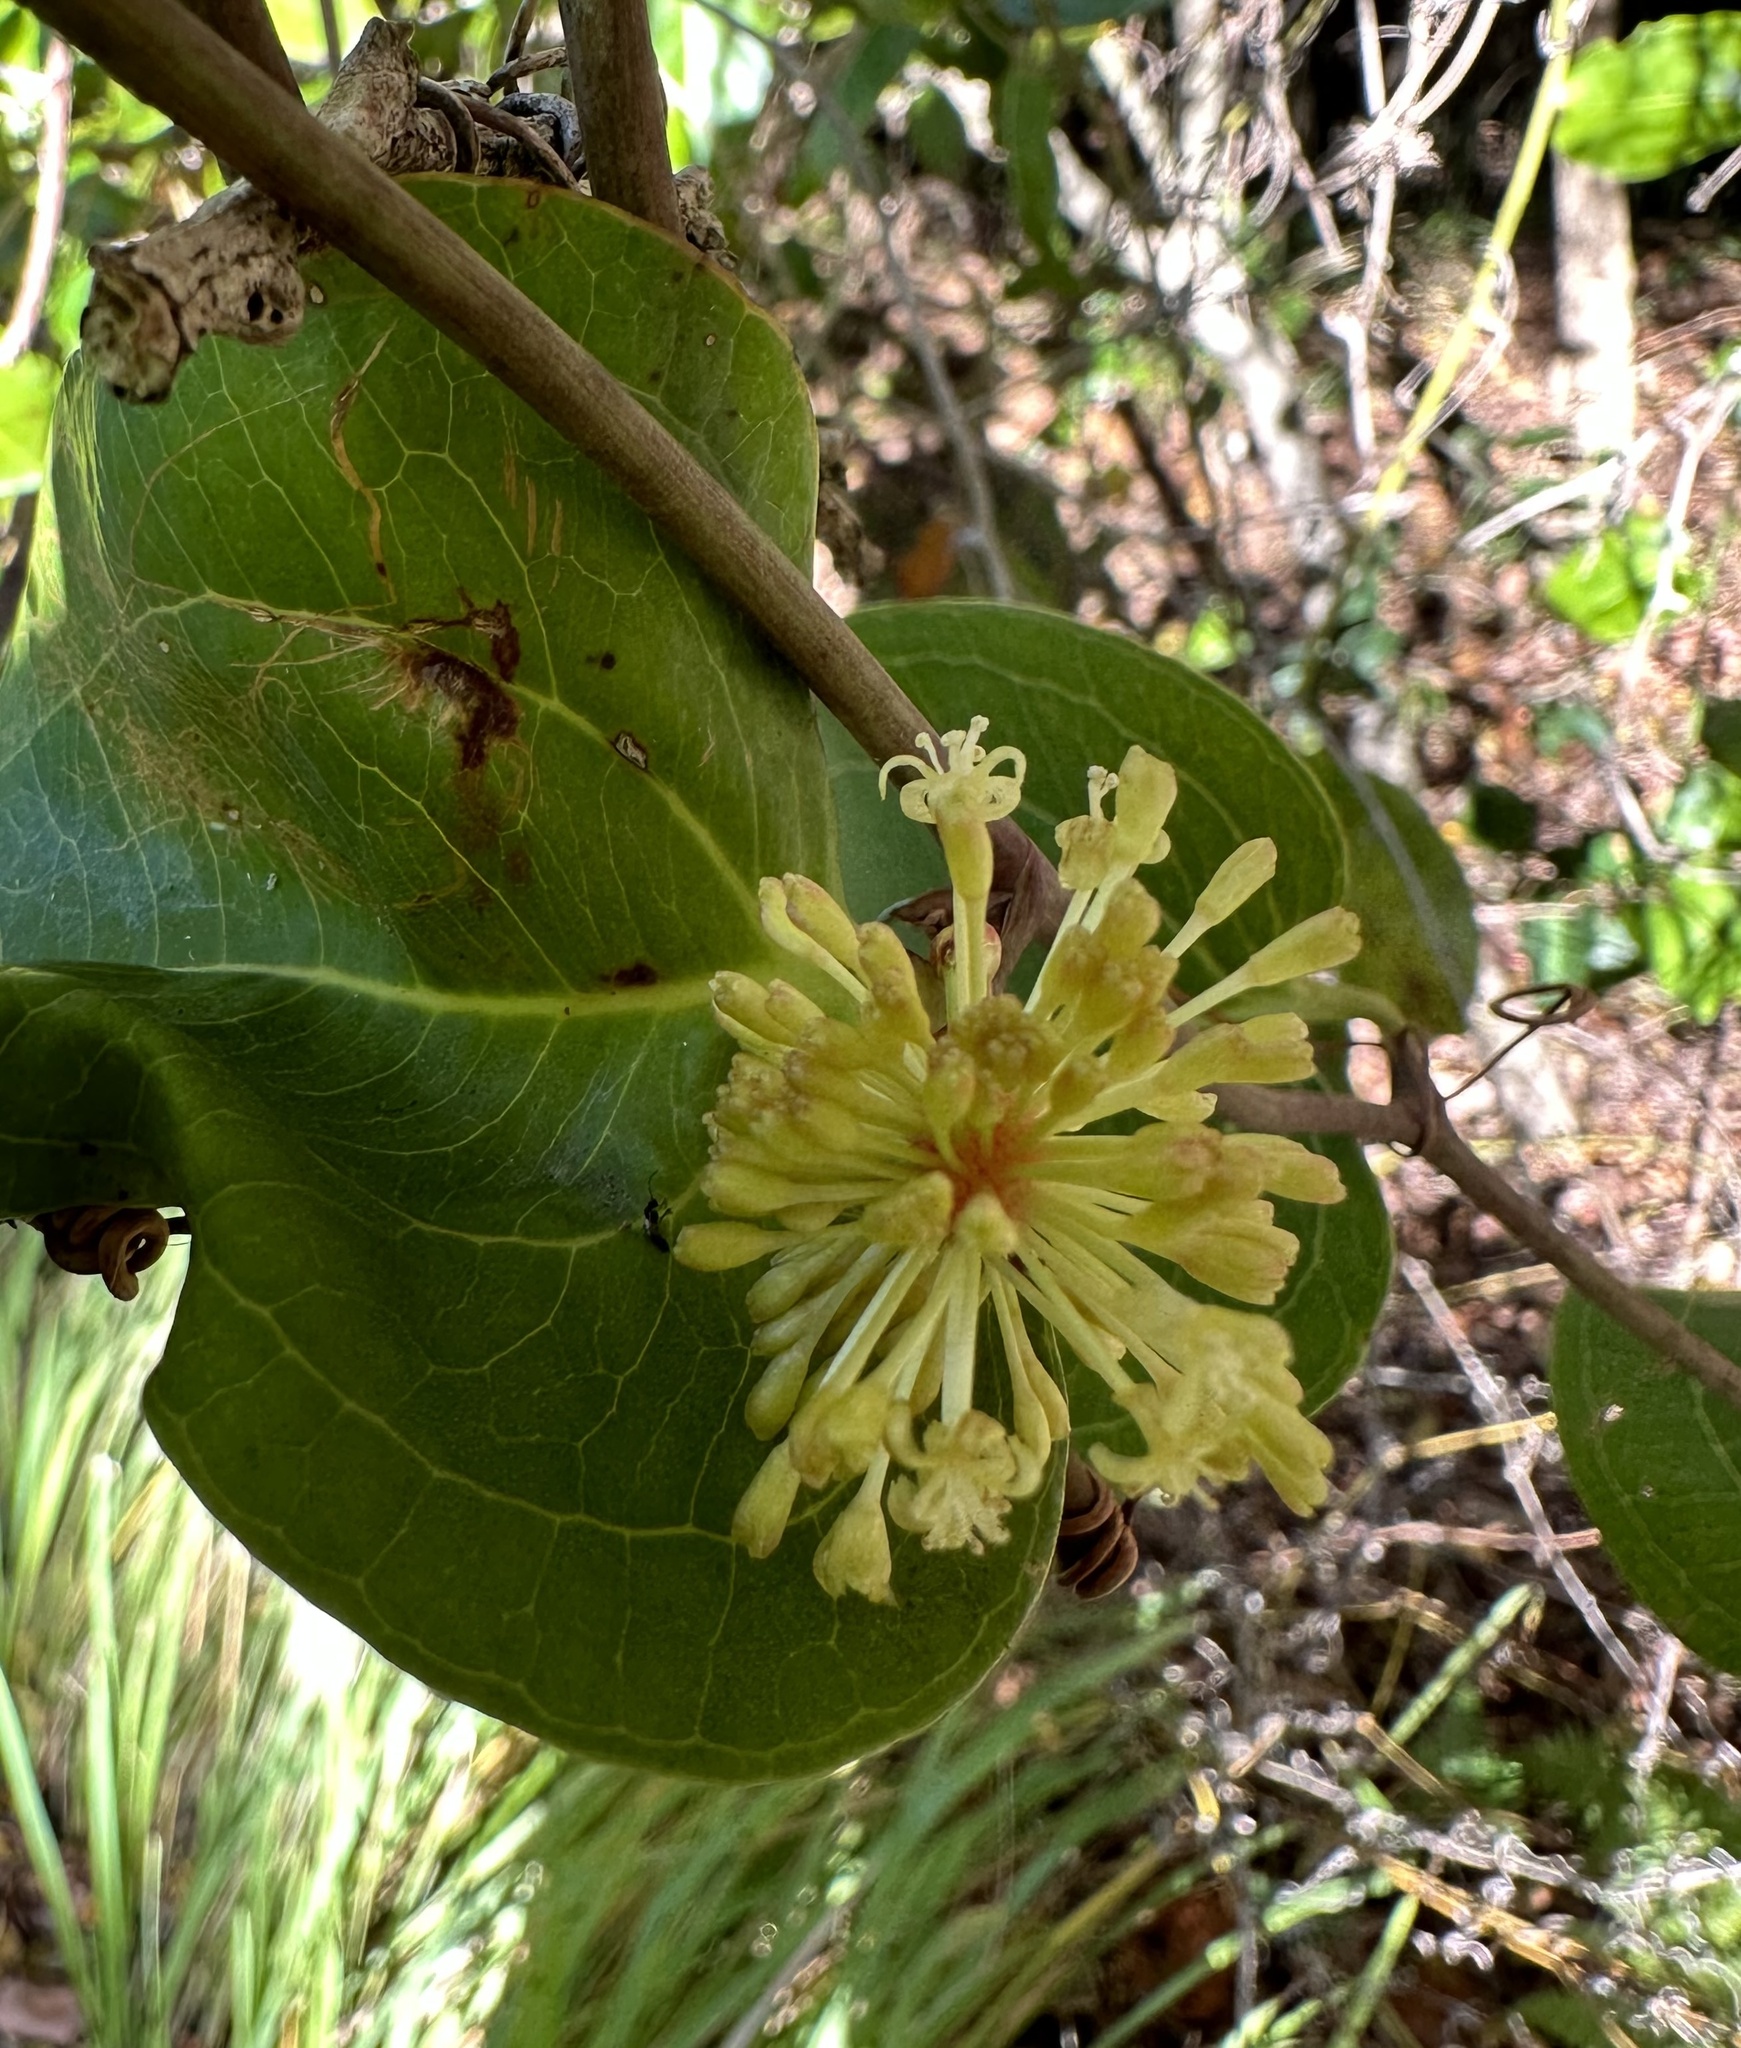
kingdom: Plantae
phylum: Tracheophyta
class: Liliopsida
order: Liliales
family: Smilacaceae
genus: Smilax
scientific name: Smilax australis
